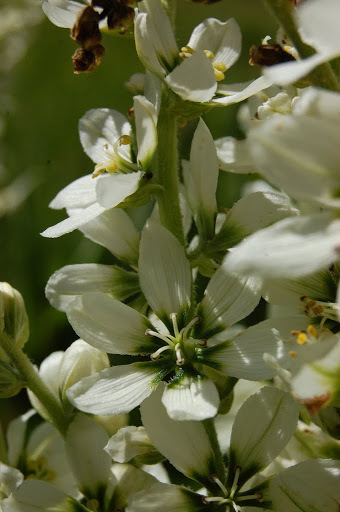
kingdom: Plantae
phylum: Tracheophyta
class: Liliopsida
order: Liliales
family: Melanthiaceae
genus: Veratrum
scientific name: Veratrum californicum
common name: California veratrum
